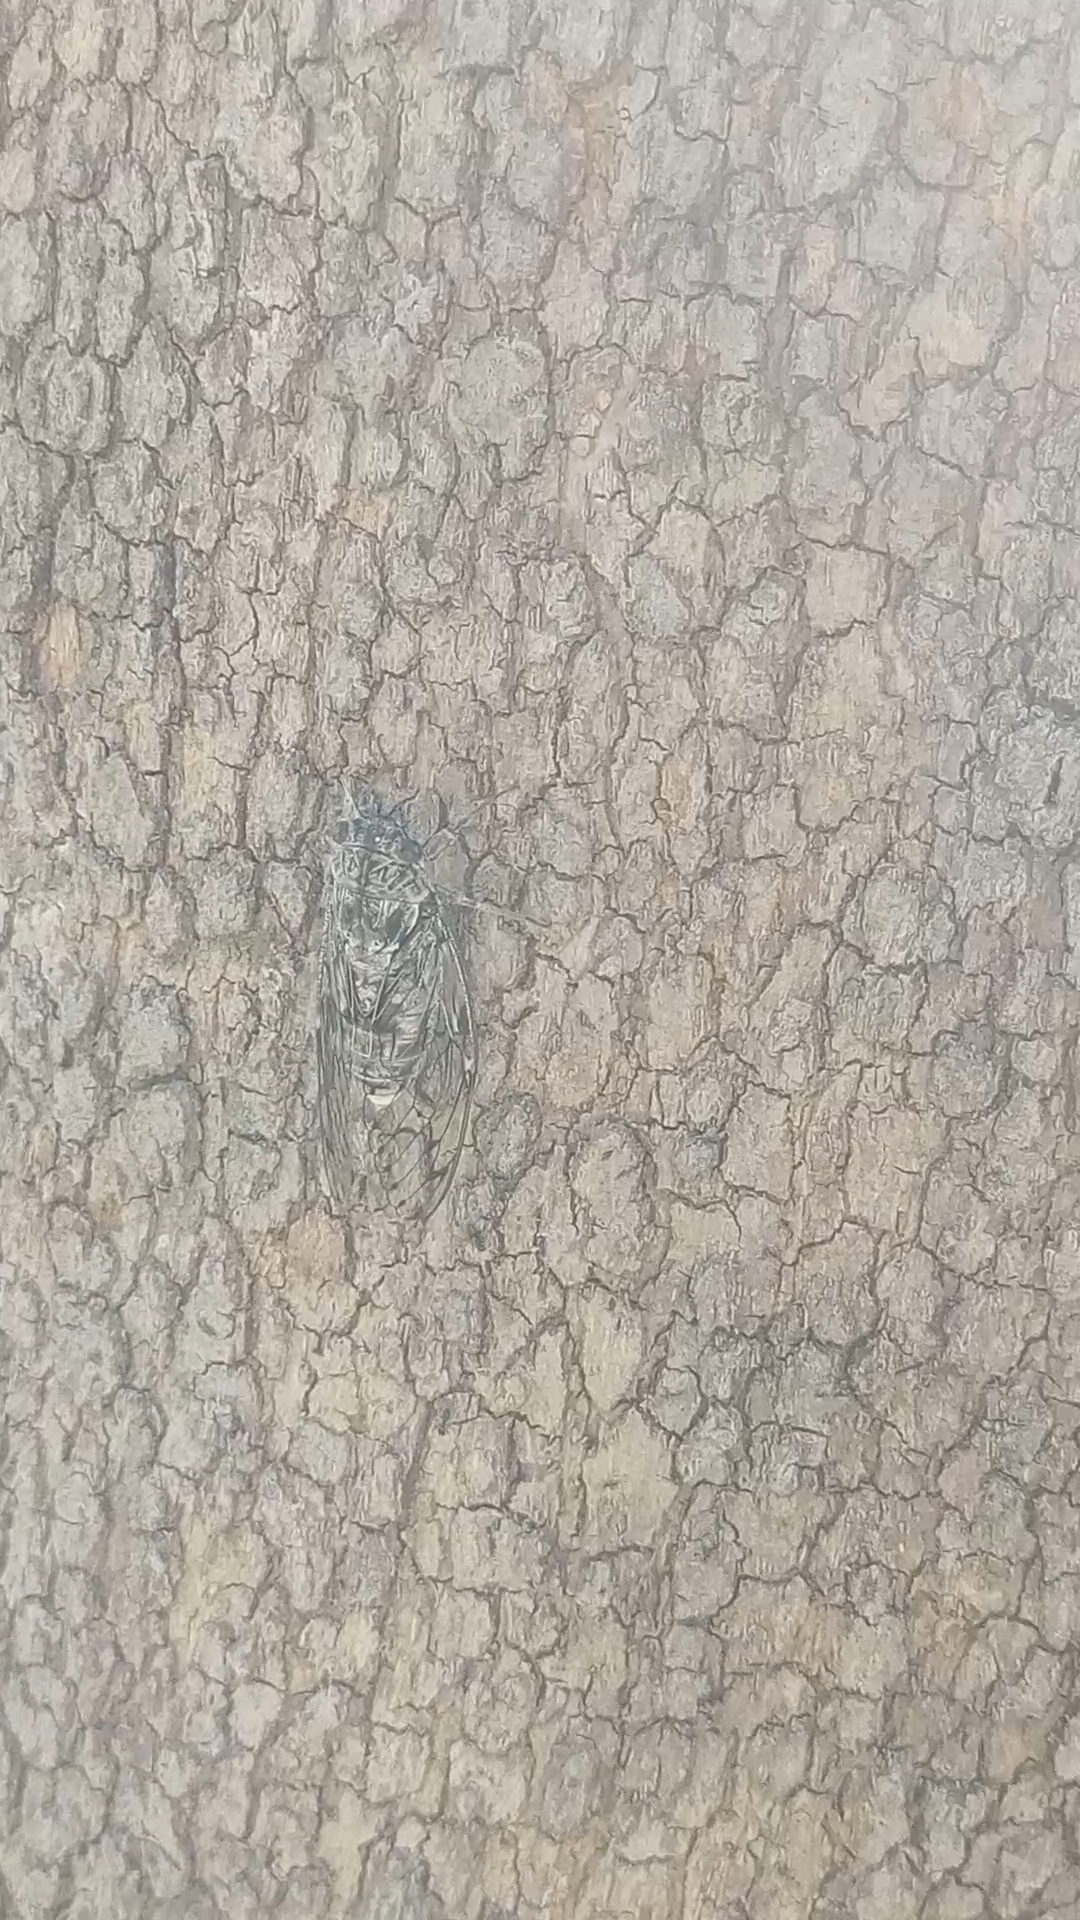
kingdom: Animalia
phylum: Arthropoda
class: Insecta
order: Hemiptera
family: Cicadidae
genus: Cicada
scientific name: Cicada mordoganensis
